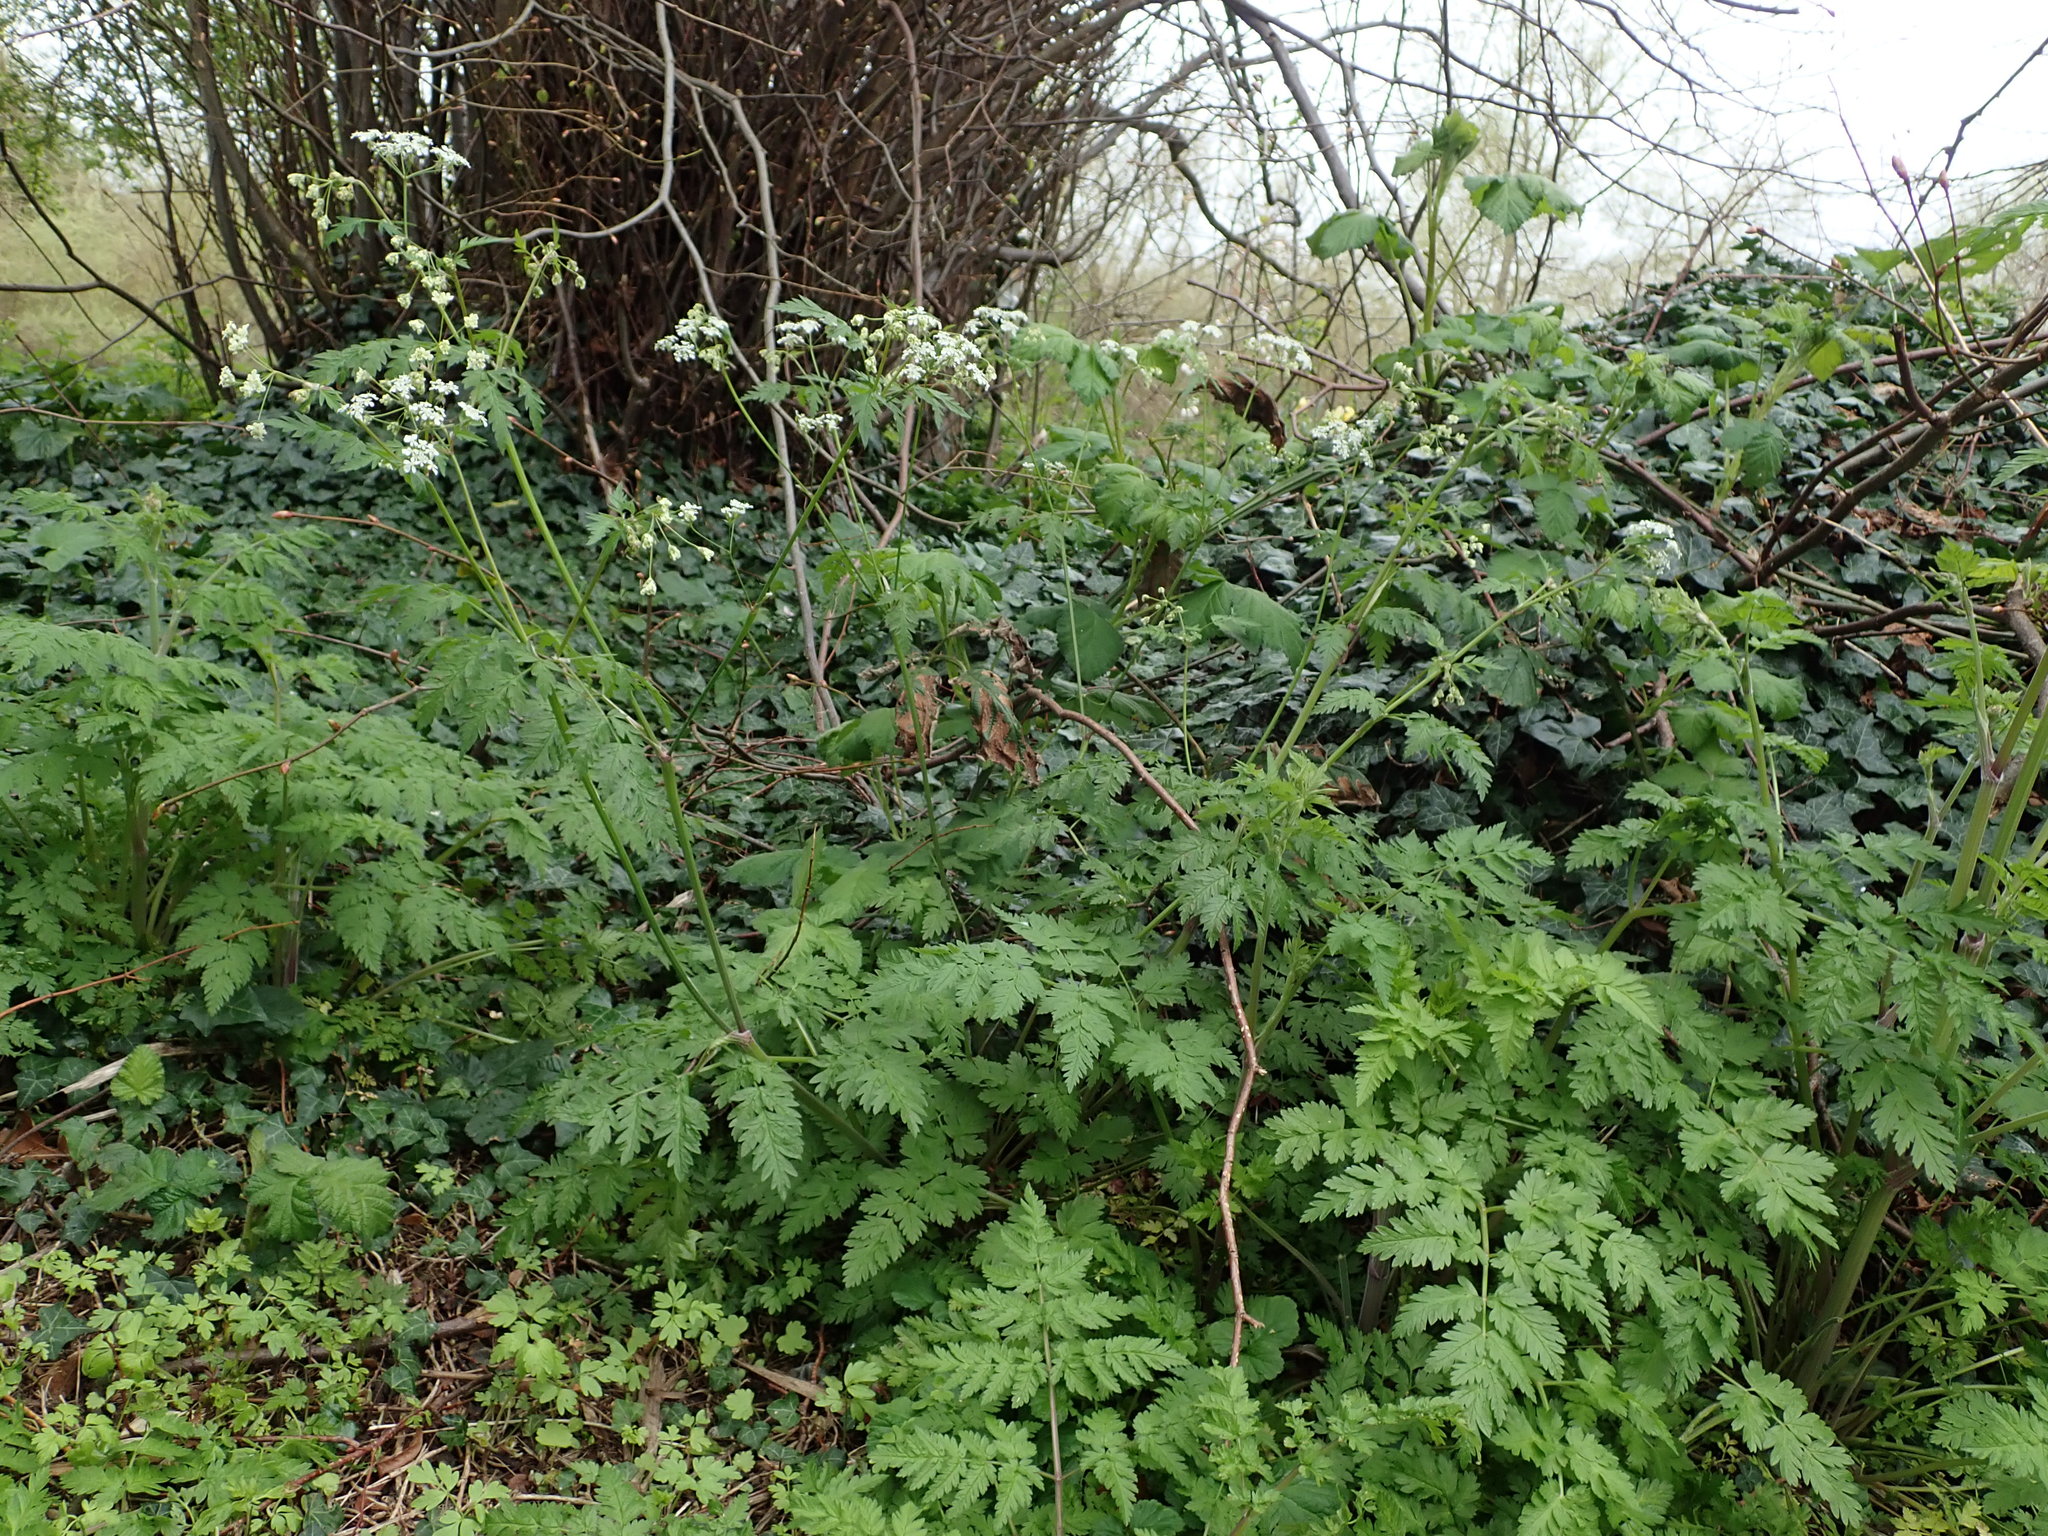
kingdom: Plantae
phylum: Tracheophyta
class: Magnoliopsida
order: Apiales
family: Apiaceae
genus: Anthriscus
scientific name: Anthriscus sylvestris
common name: Cow parsley
